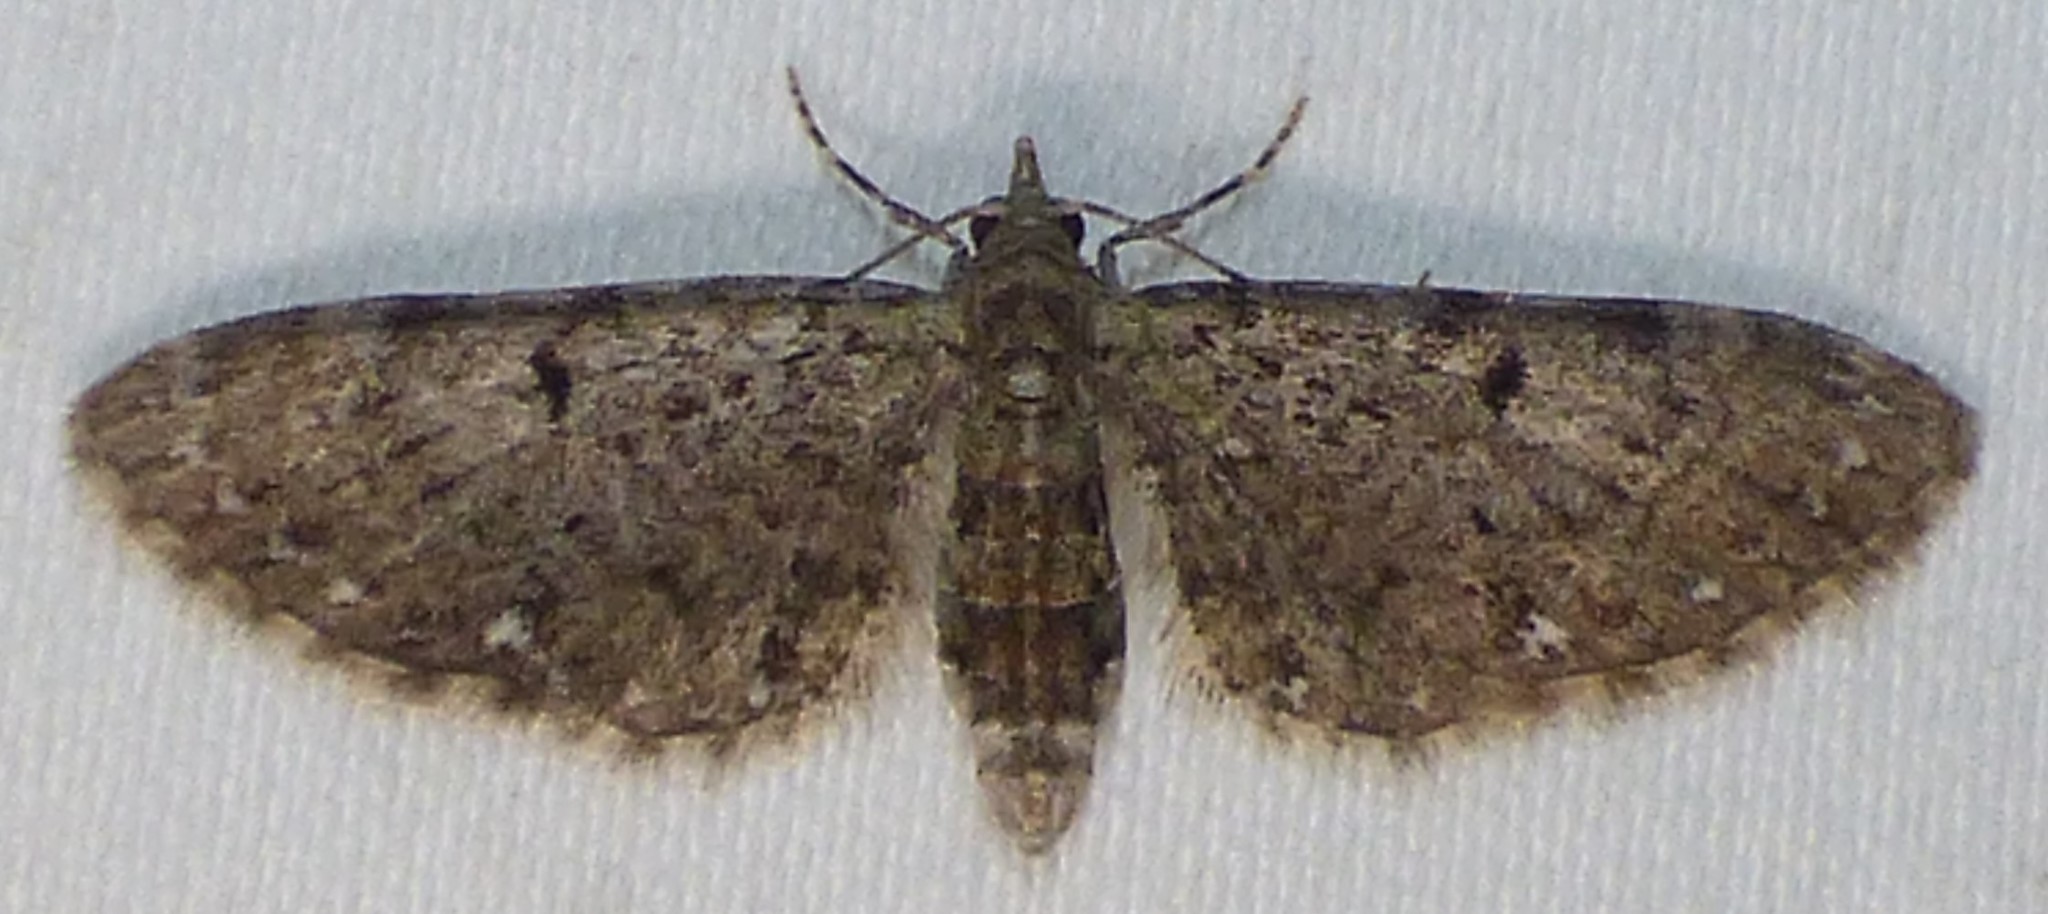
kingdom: Animalia
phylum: Arthropoda
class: Insecta
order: Lepidoptera
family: Geometridae
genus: Eupithecia
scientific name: Eupithecia miserulata
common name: Common eupithecia
